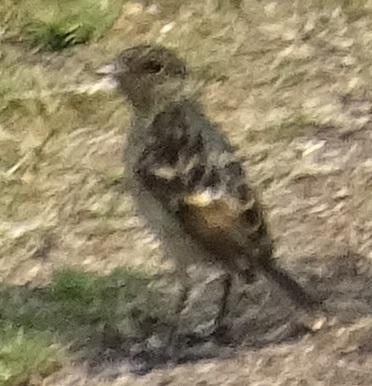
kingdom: Animalia
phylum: Chordata
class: Aves
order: Passeriformes
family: Muscicapidae
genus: Saxicola
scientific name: Saxicola rubicola
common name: European stonechat
